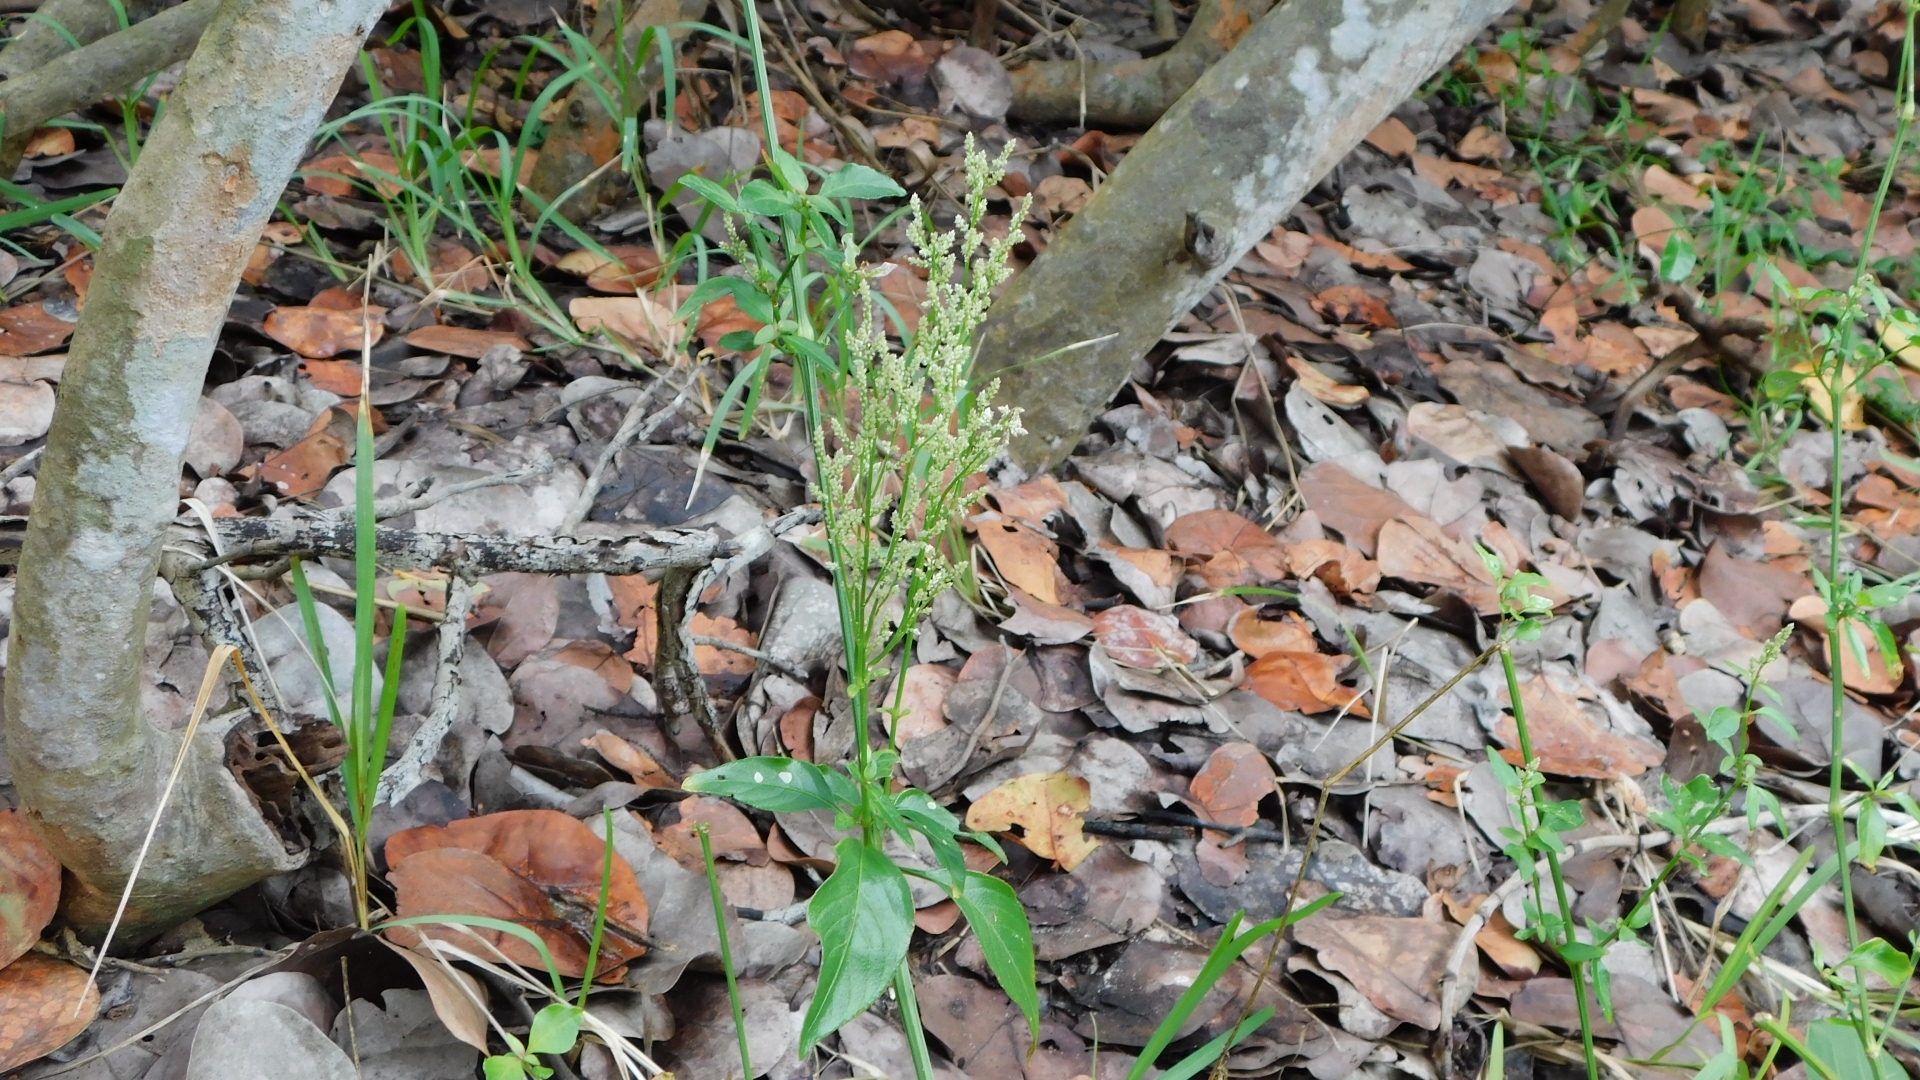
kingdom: Plantae
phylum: Tracheophyta
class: Magnoliopsida
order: Caryophyllales
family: Amaranthaceae
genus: Iresine
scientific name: Iresine diffusa
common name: Juba's-bush
